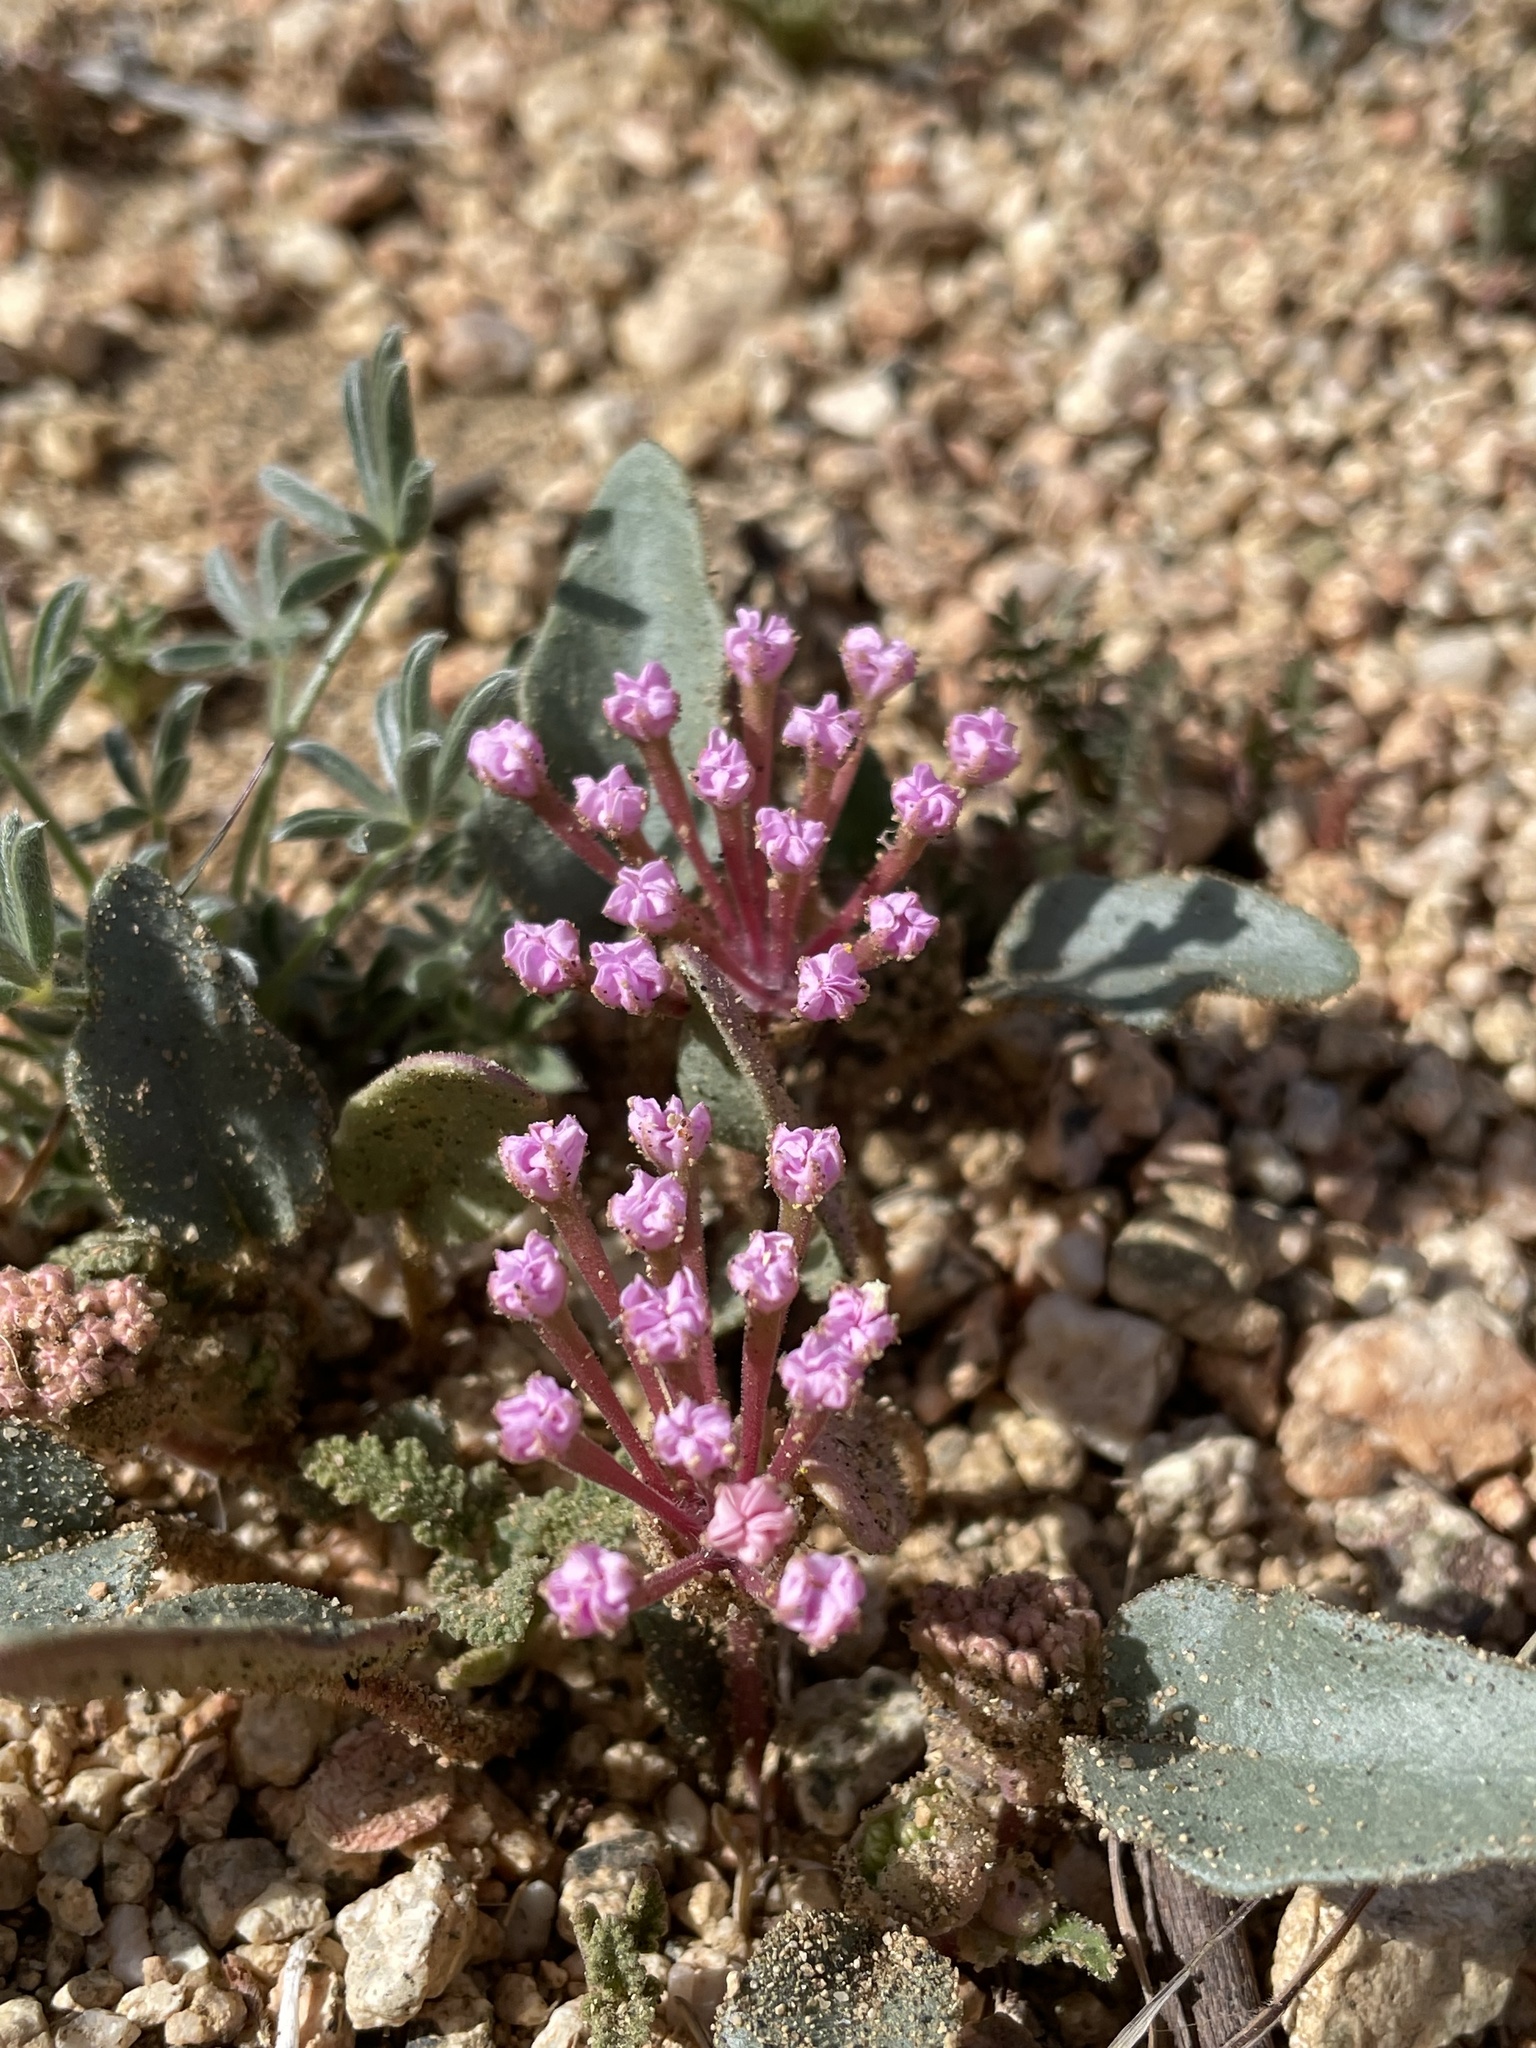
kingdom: Plantae
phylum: Tracheophyta
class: Magnoliopsida
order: Caryophyllales
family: Nyctaginaceae
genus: Abronia
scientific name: Abronia pogonantha
